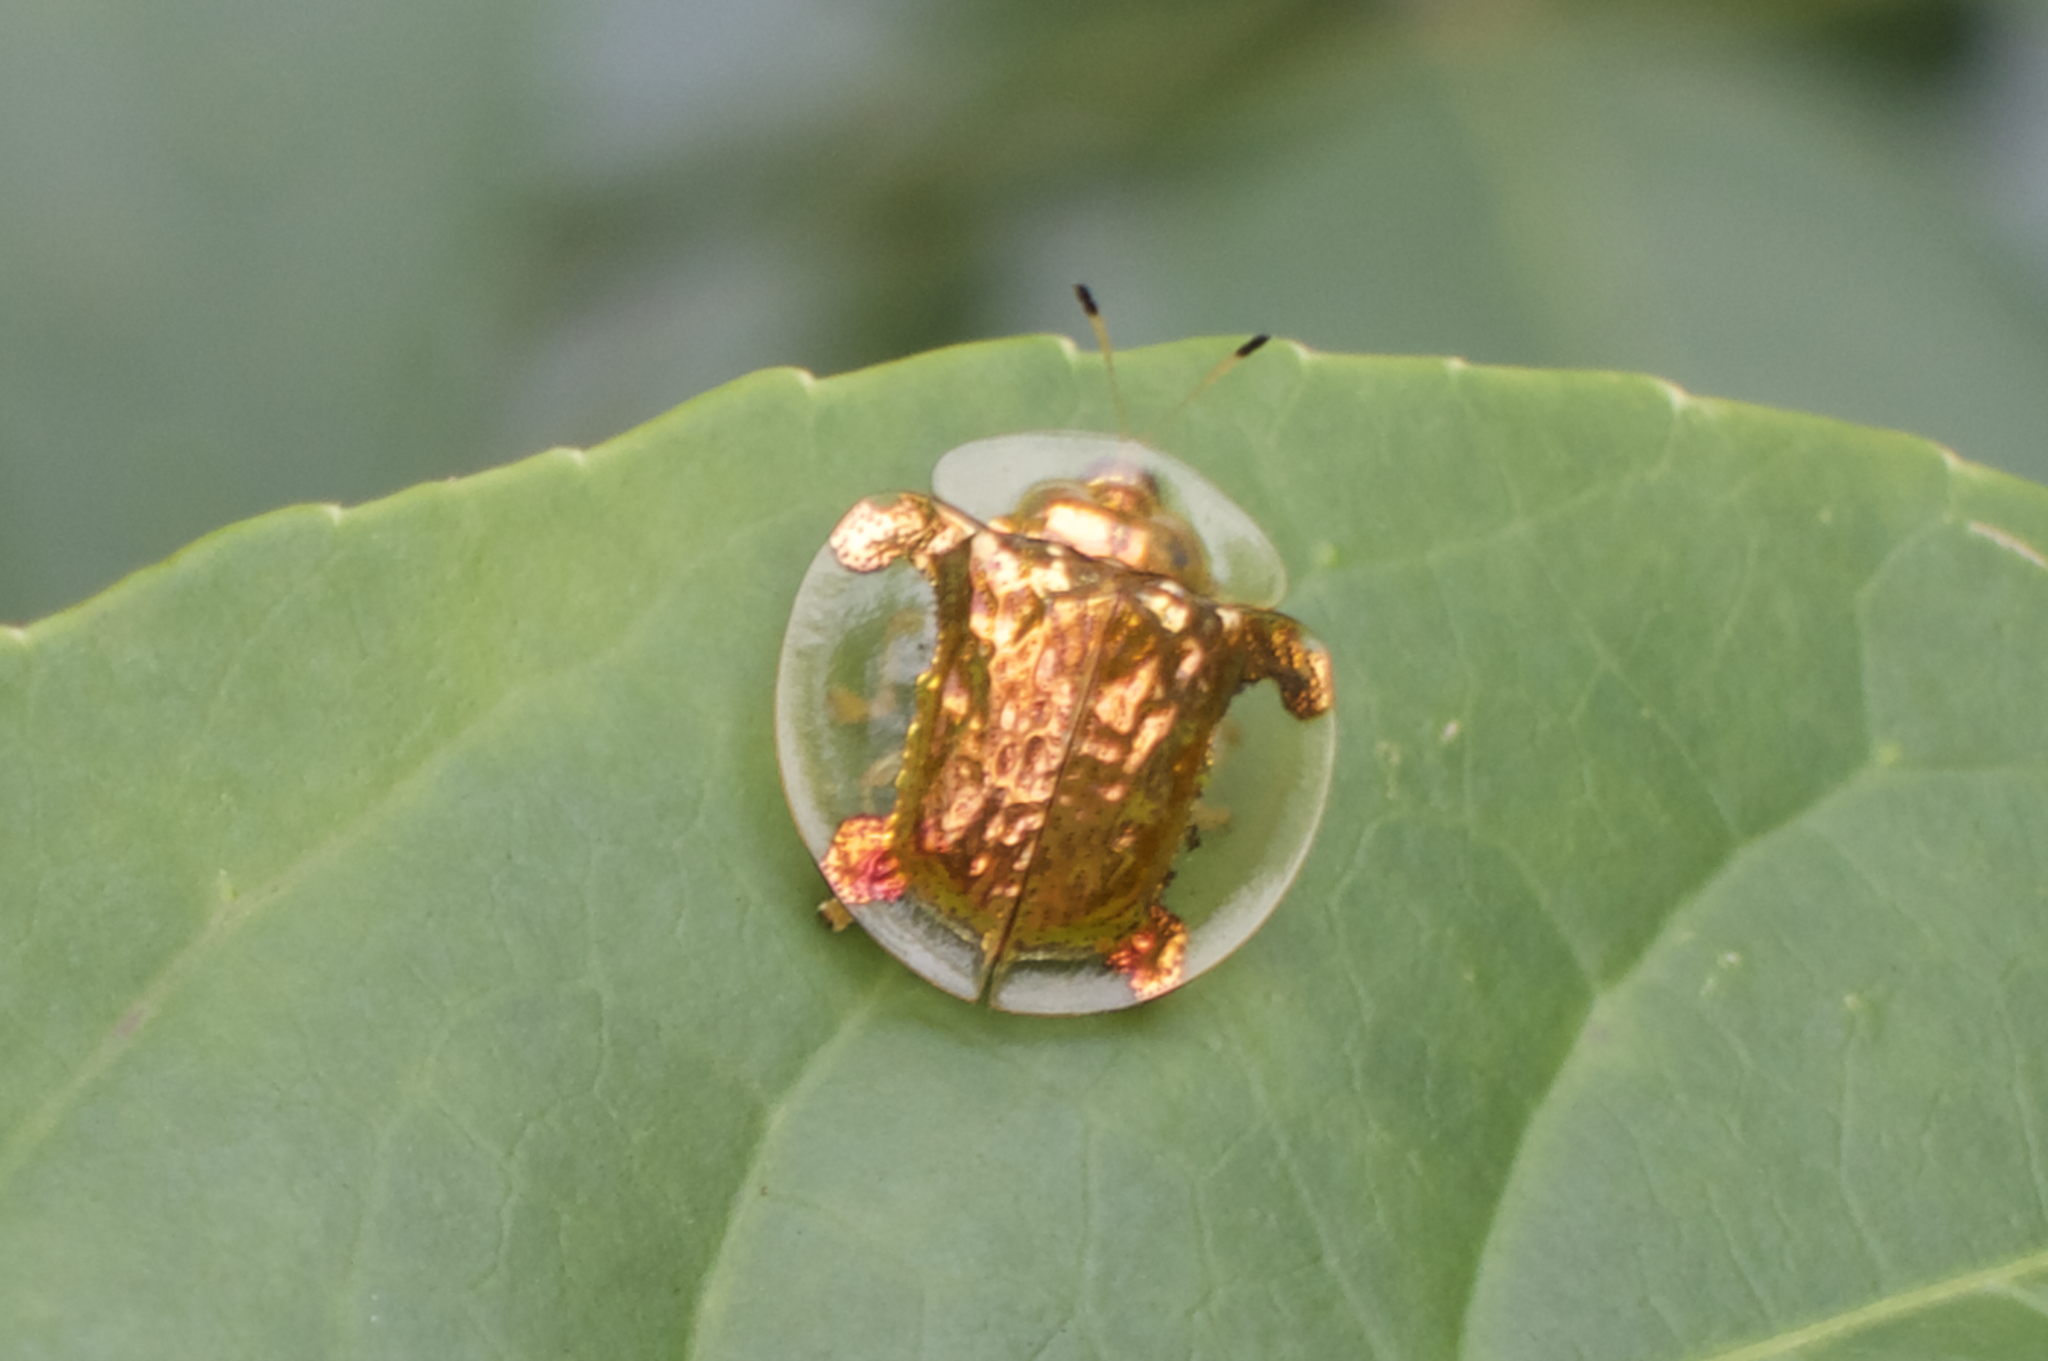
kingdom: Animalia
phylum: Arthropoda
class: Insecta
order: Coleoptera
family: Chrysomelidae
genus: Aspidimorpha
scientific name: Aspidimorpha sanctaecrucis
